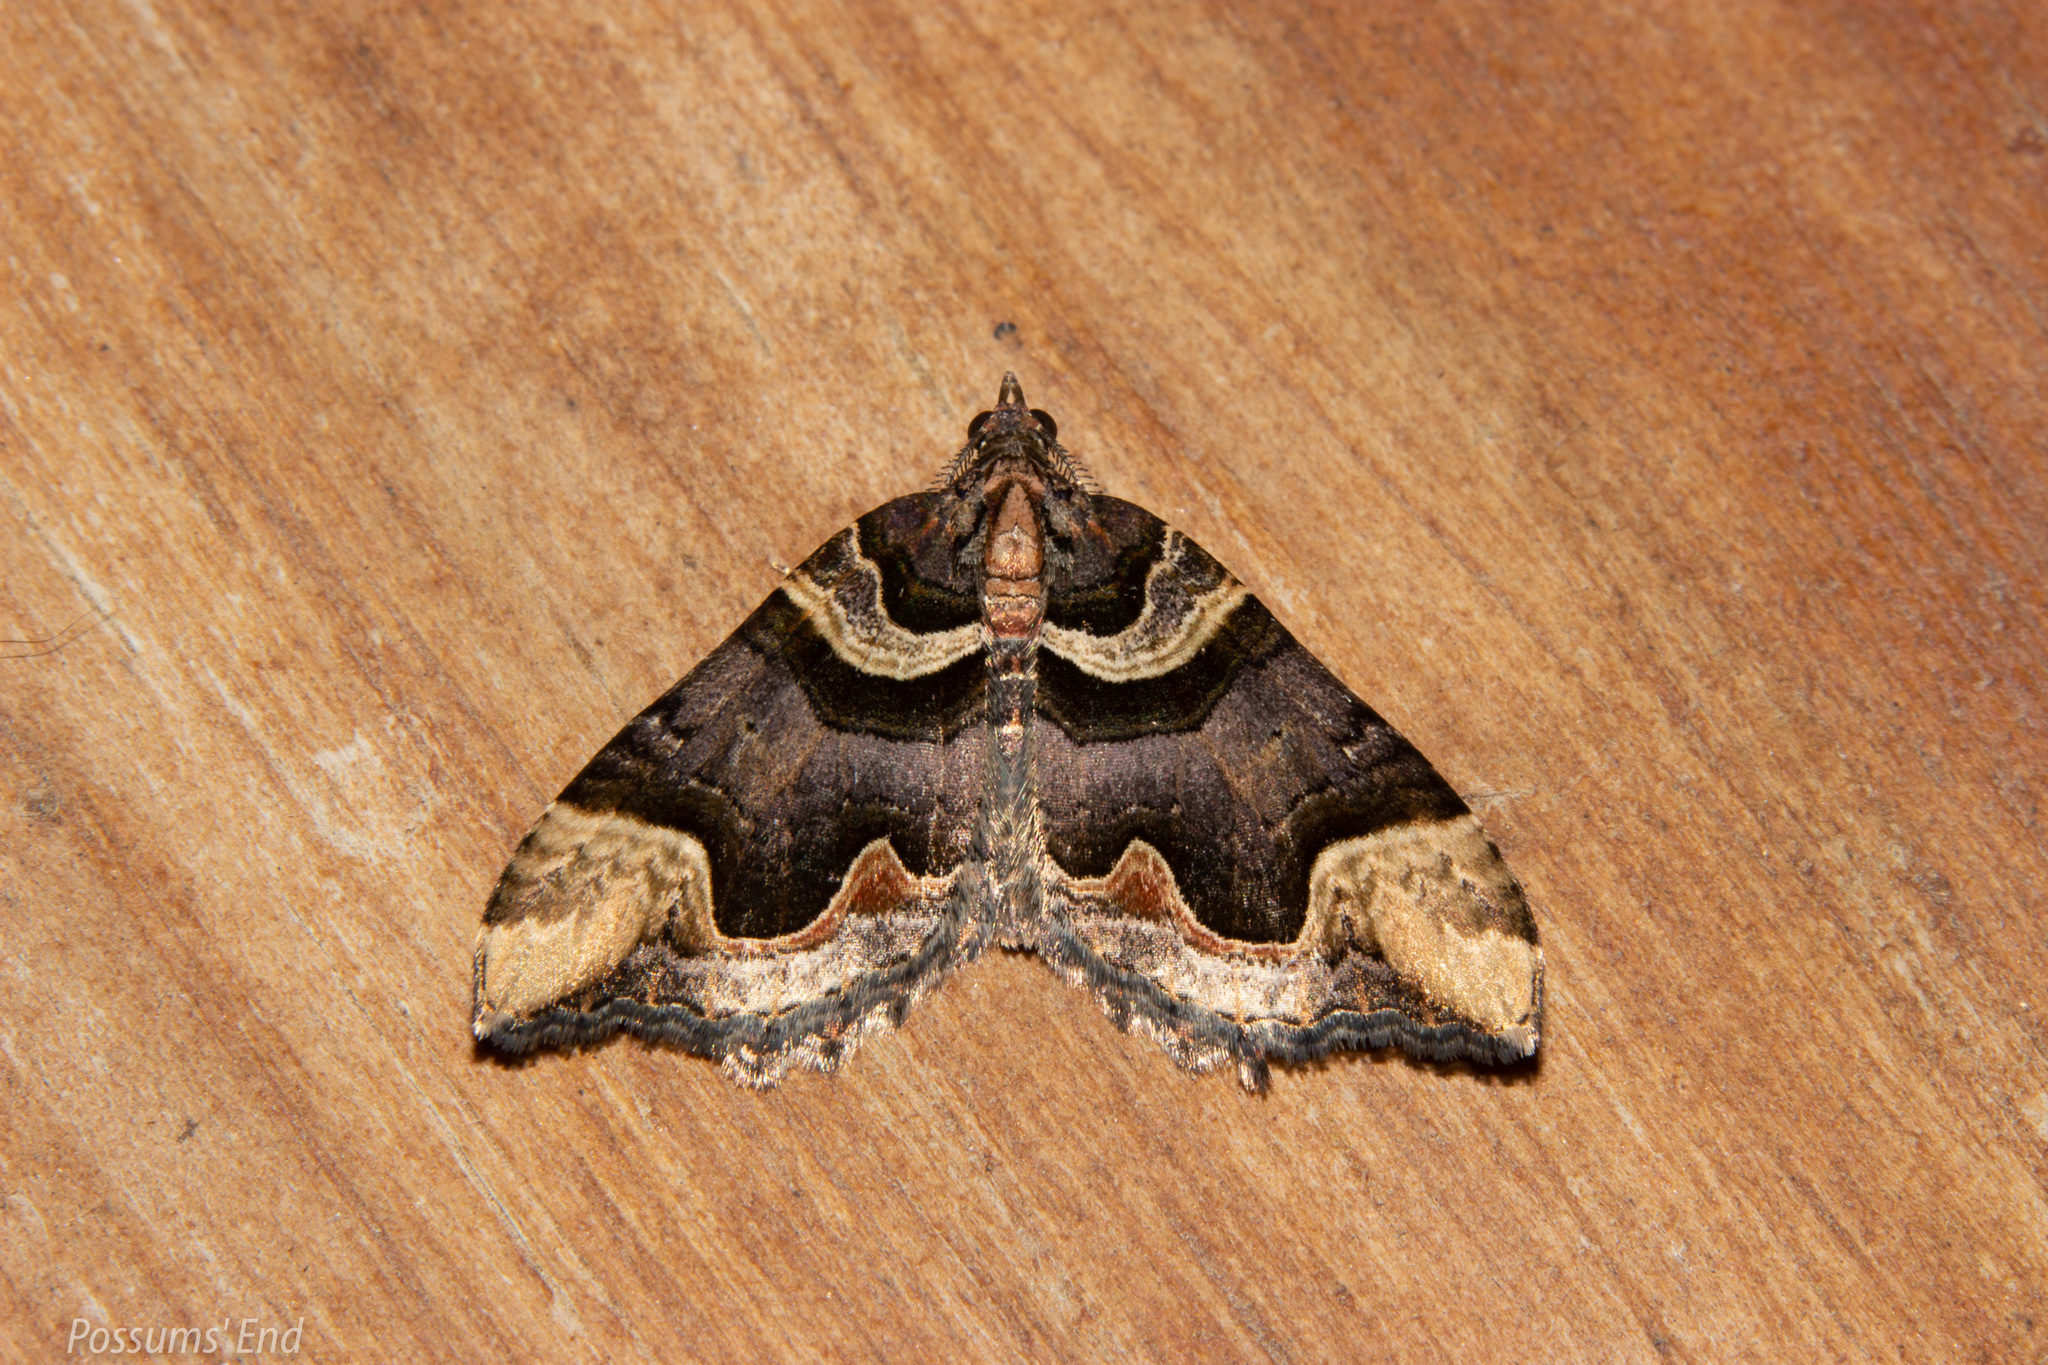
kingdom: Animalia
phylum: Arthropoda
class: Insecta
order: Lepidoptera
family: Geometridae
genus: Asaphodes
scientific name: Asaphodes chlamydota
